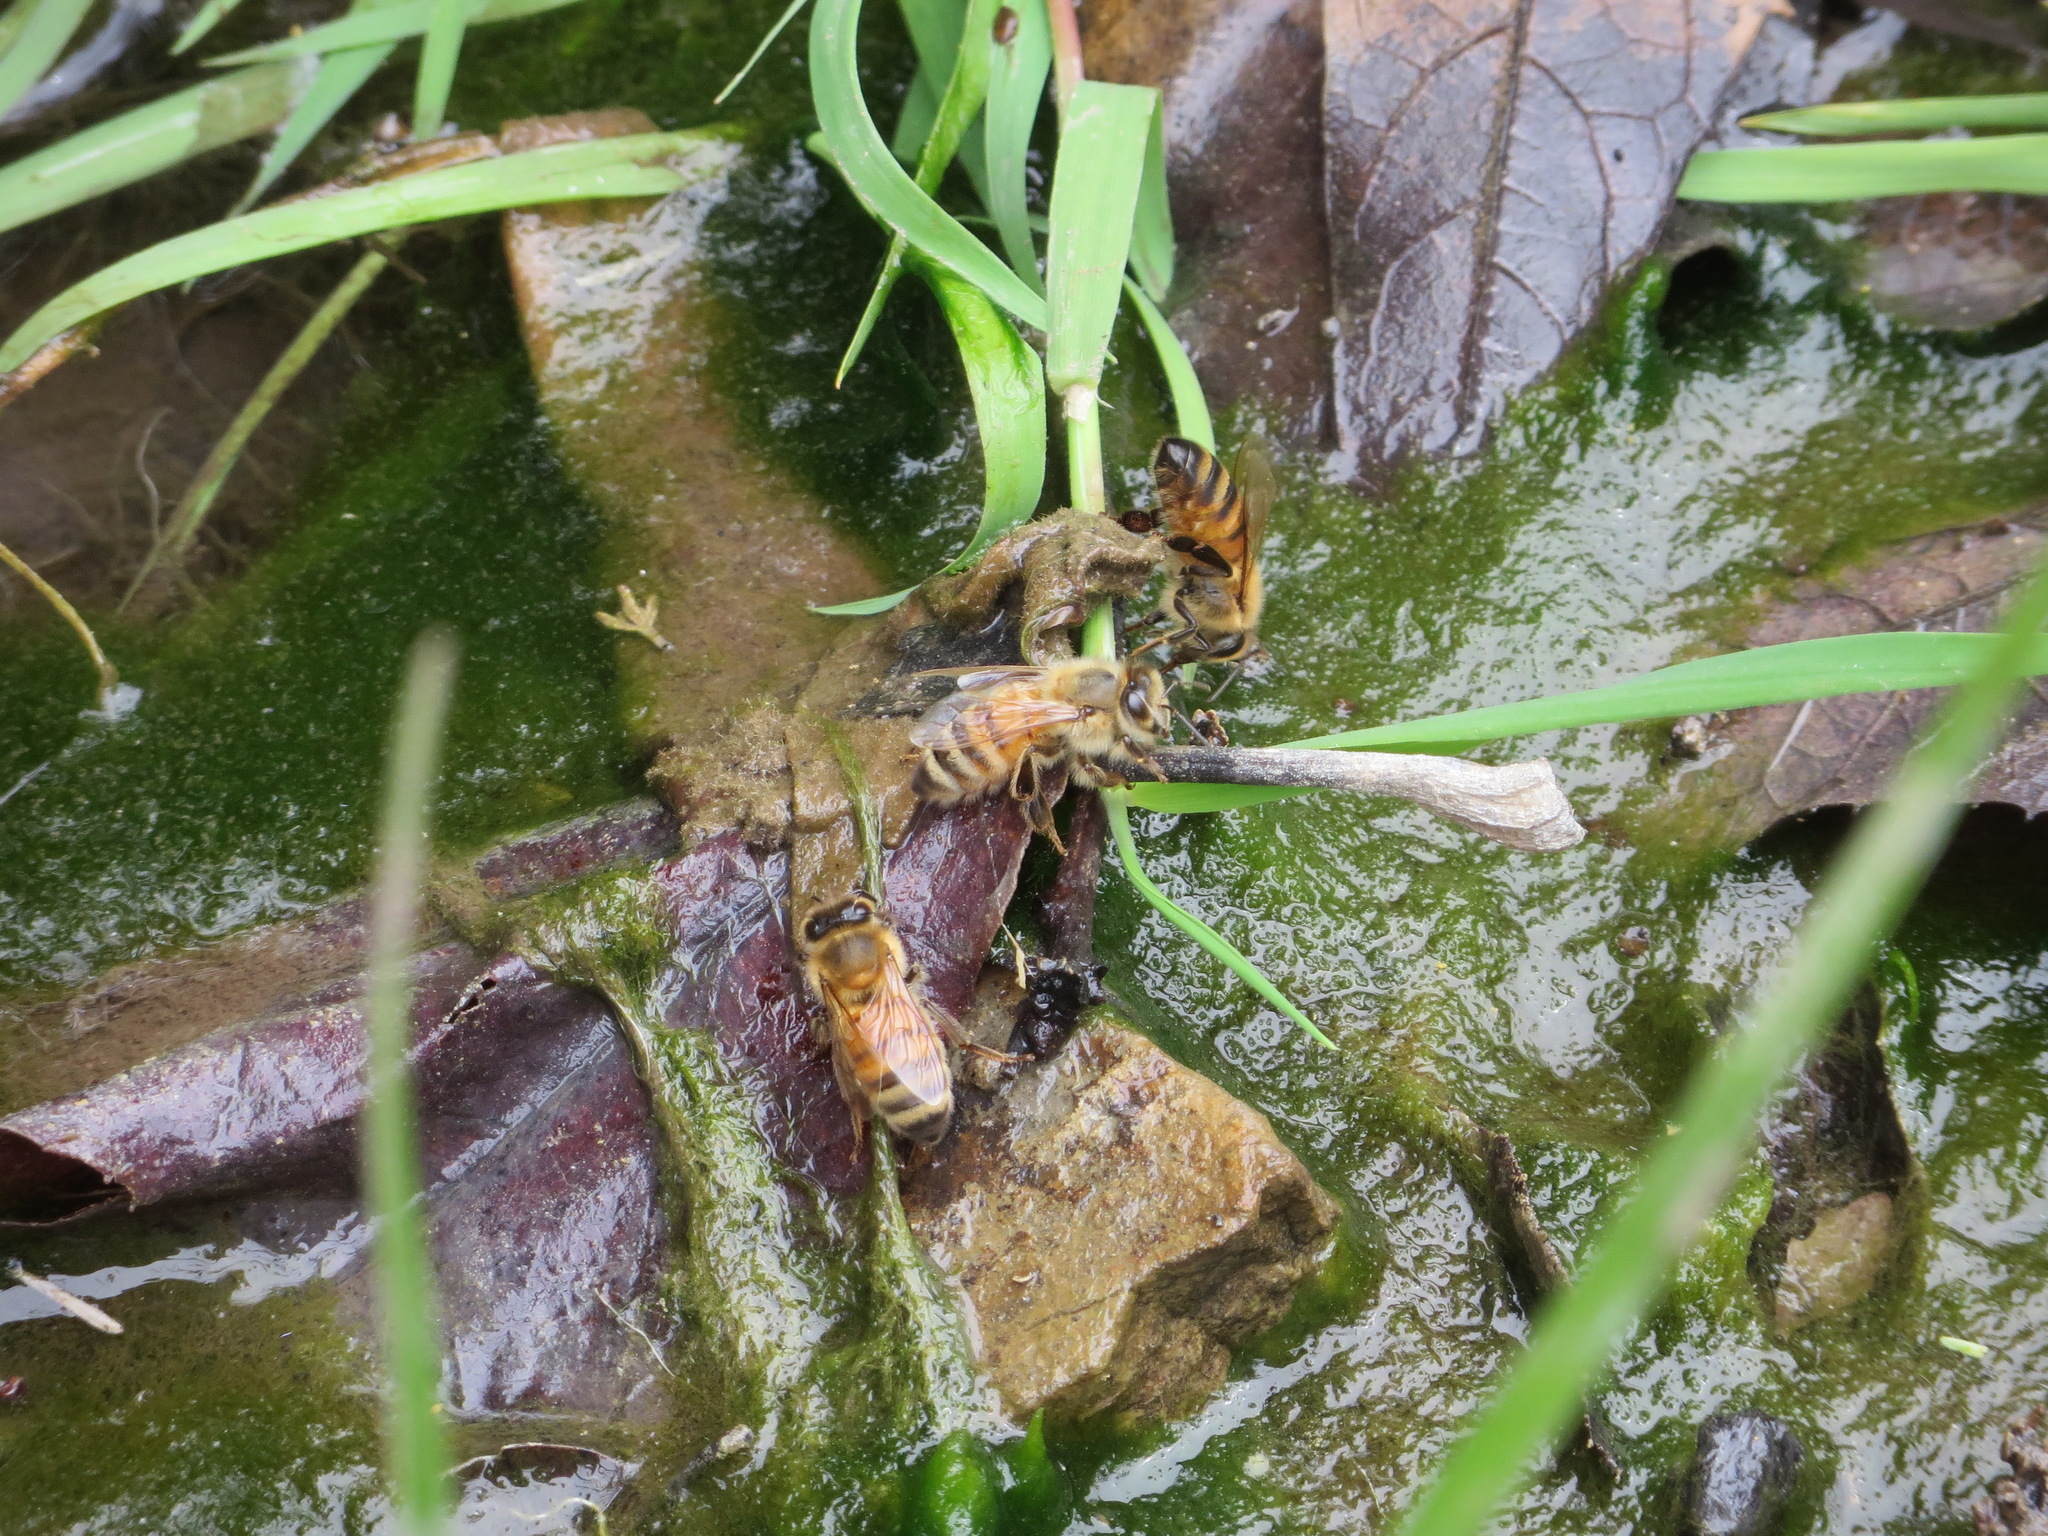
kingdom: Animalia
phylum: Arthropoda
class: Insecta
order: Hymenoptera
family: Apidae
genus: Apis
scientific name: Apis mellifera
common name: Honey bee
